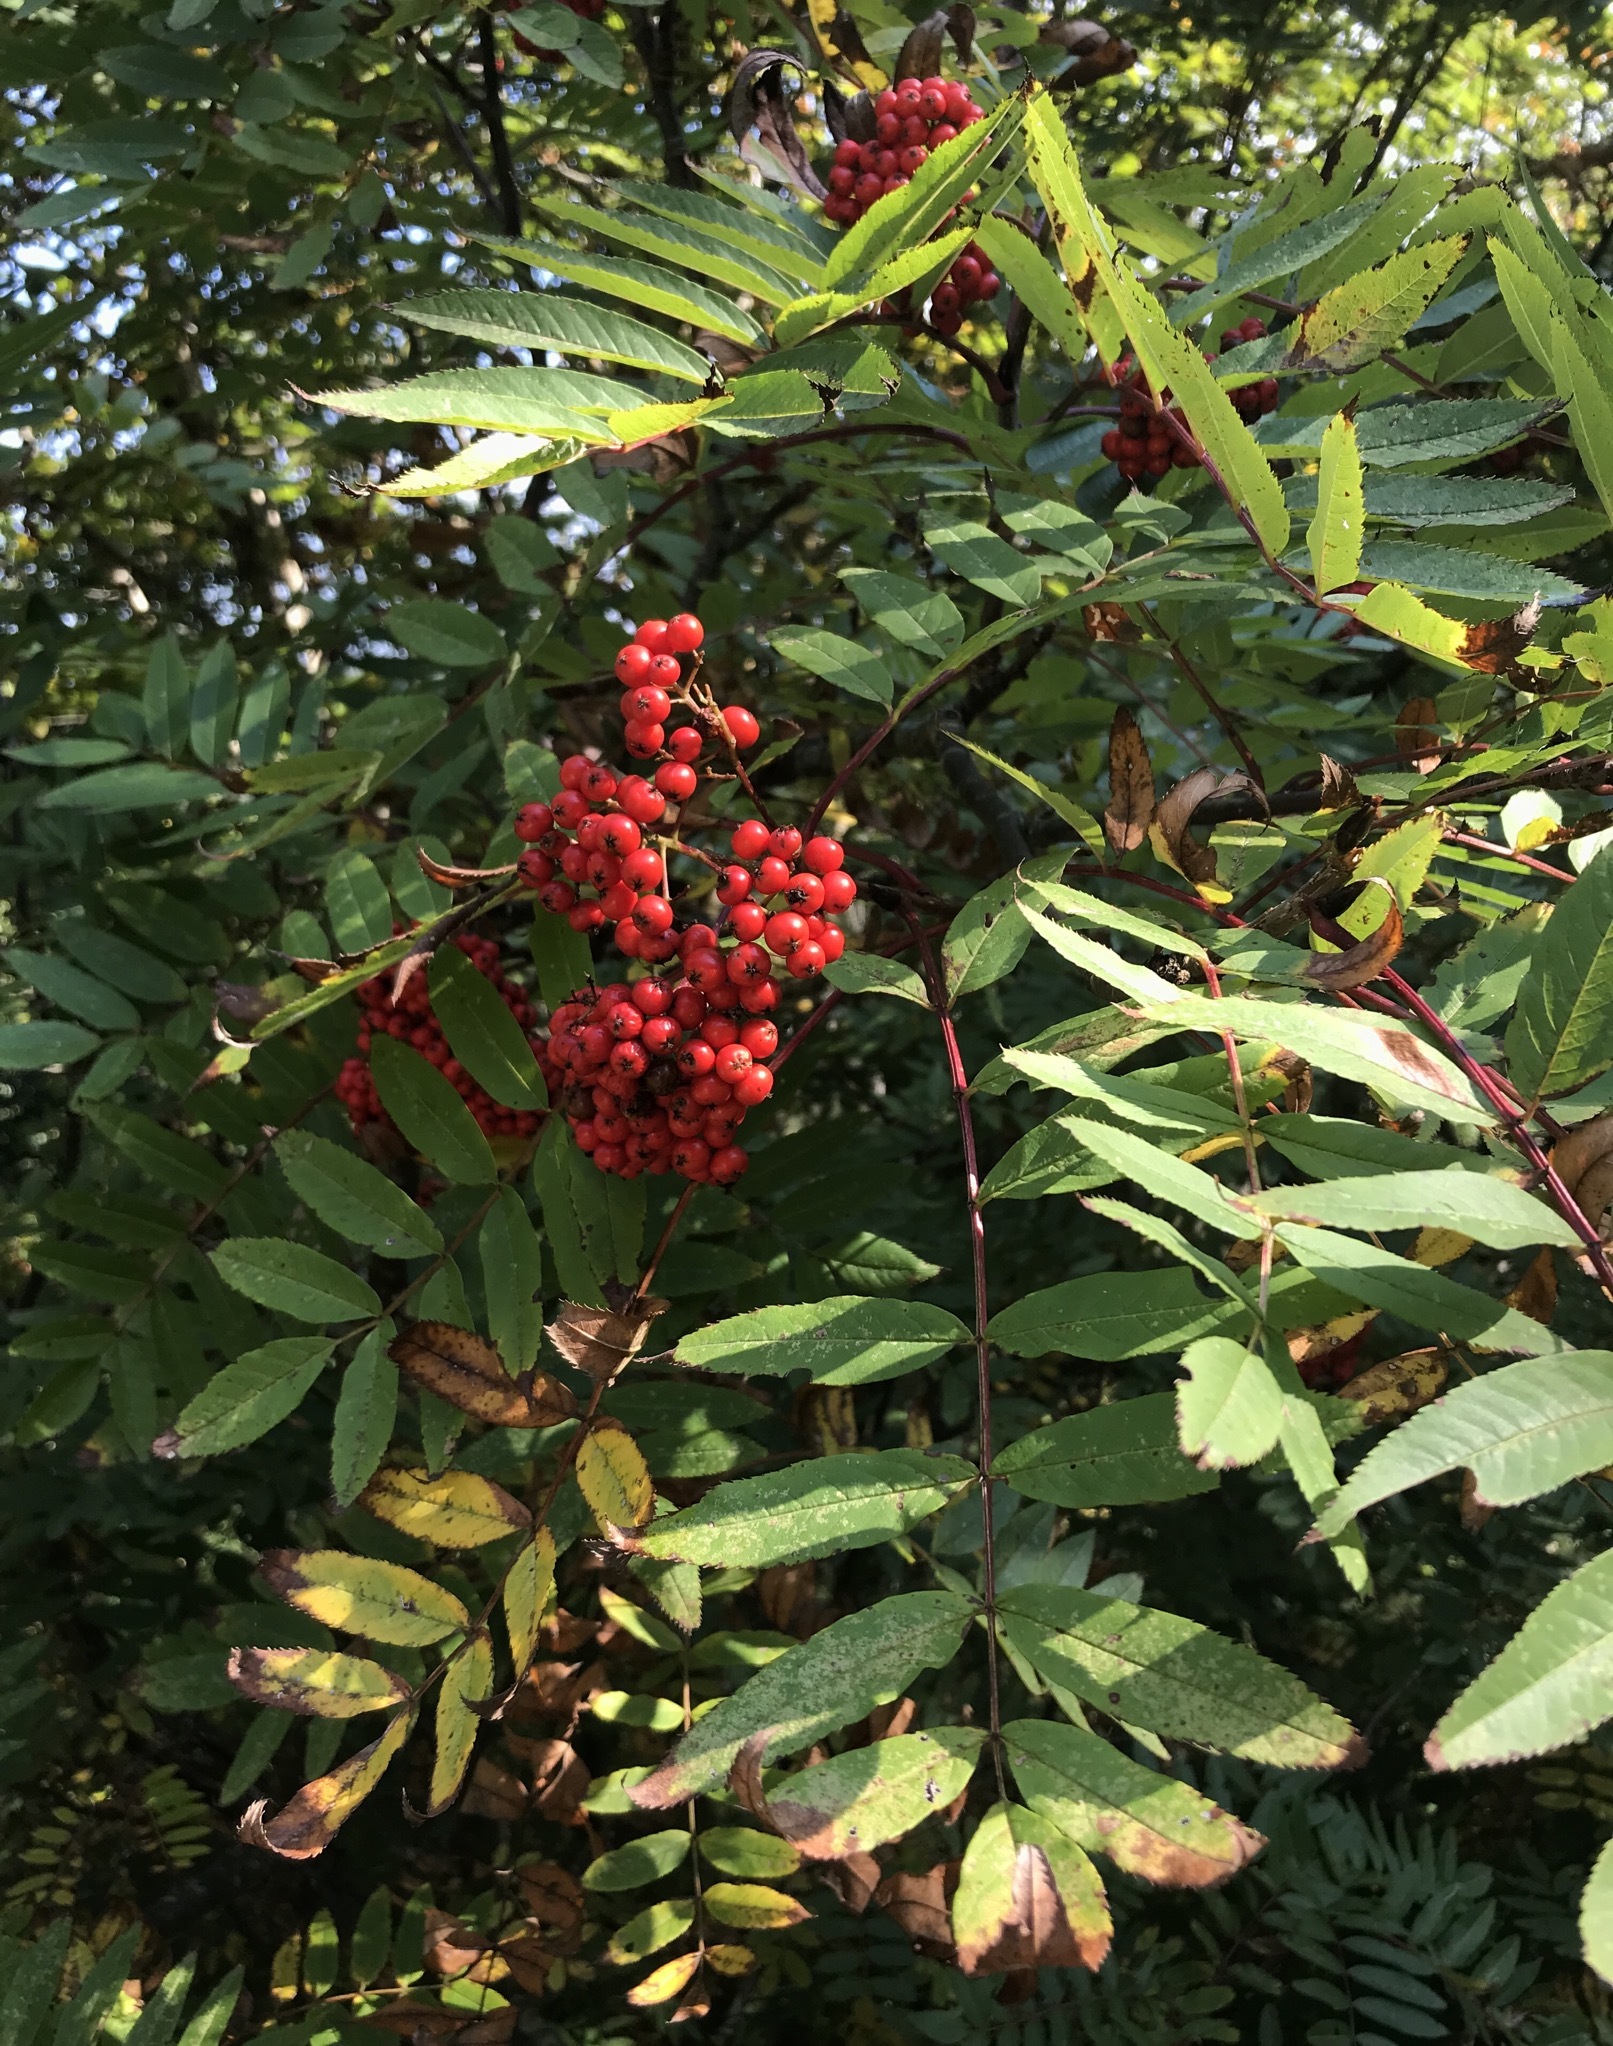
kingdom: Plantae
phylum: Tracheophyta
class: Magnoliopsida
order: Rosales
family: Rosaceae
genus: Sorbus
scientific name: Sorbus americana
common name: American mountain-ash
